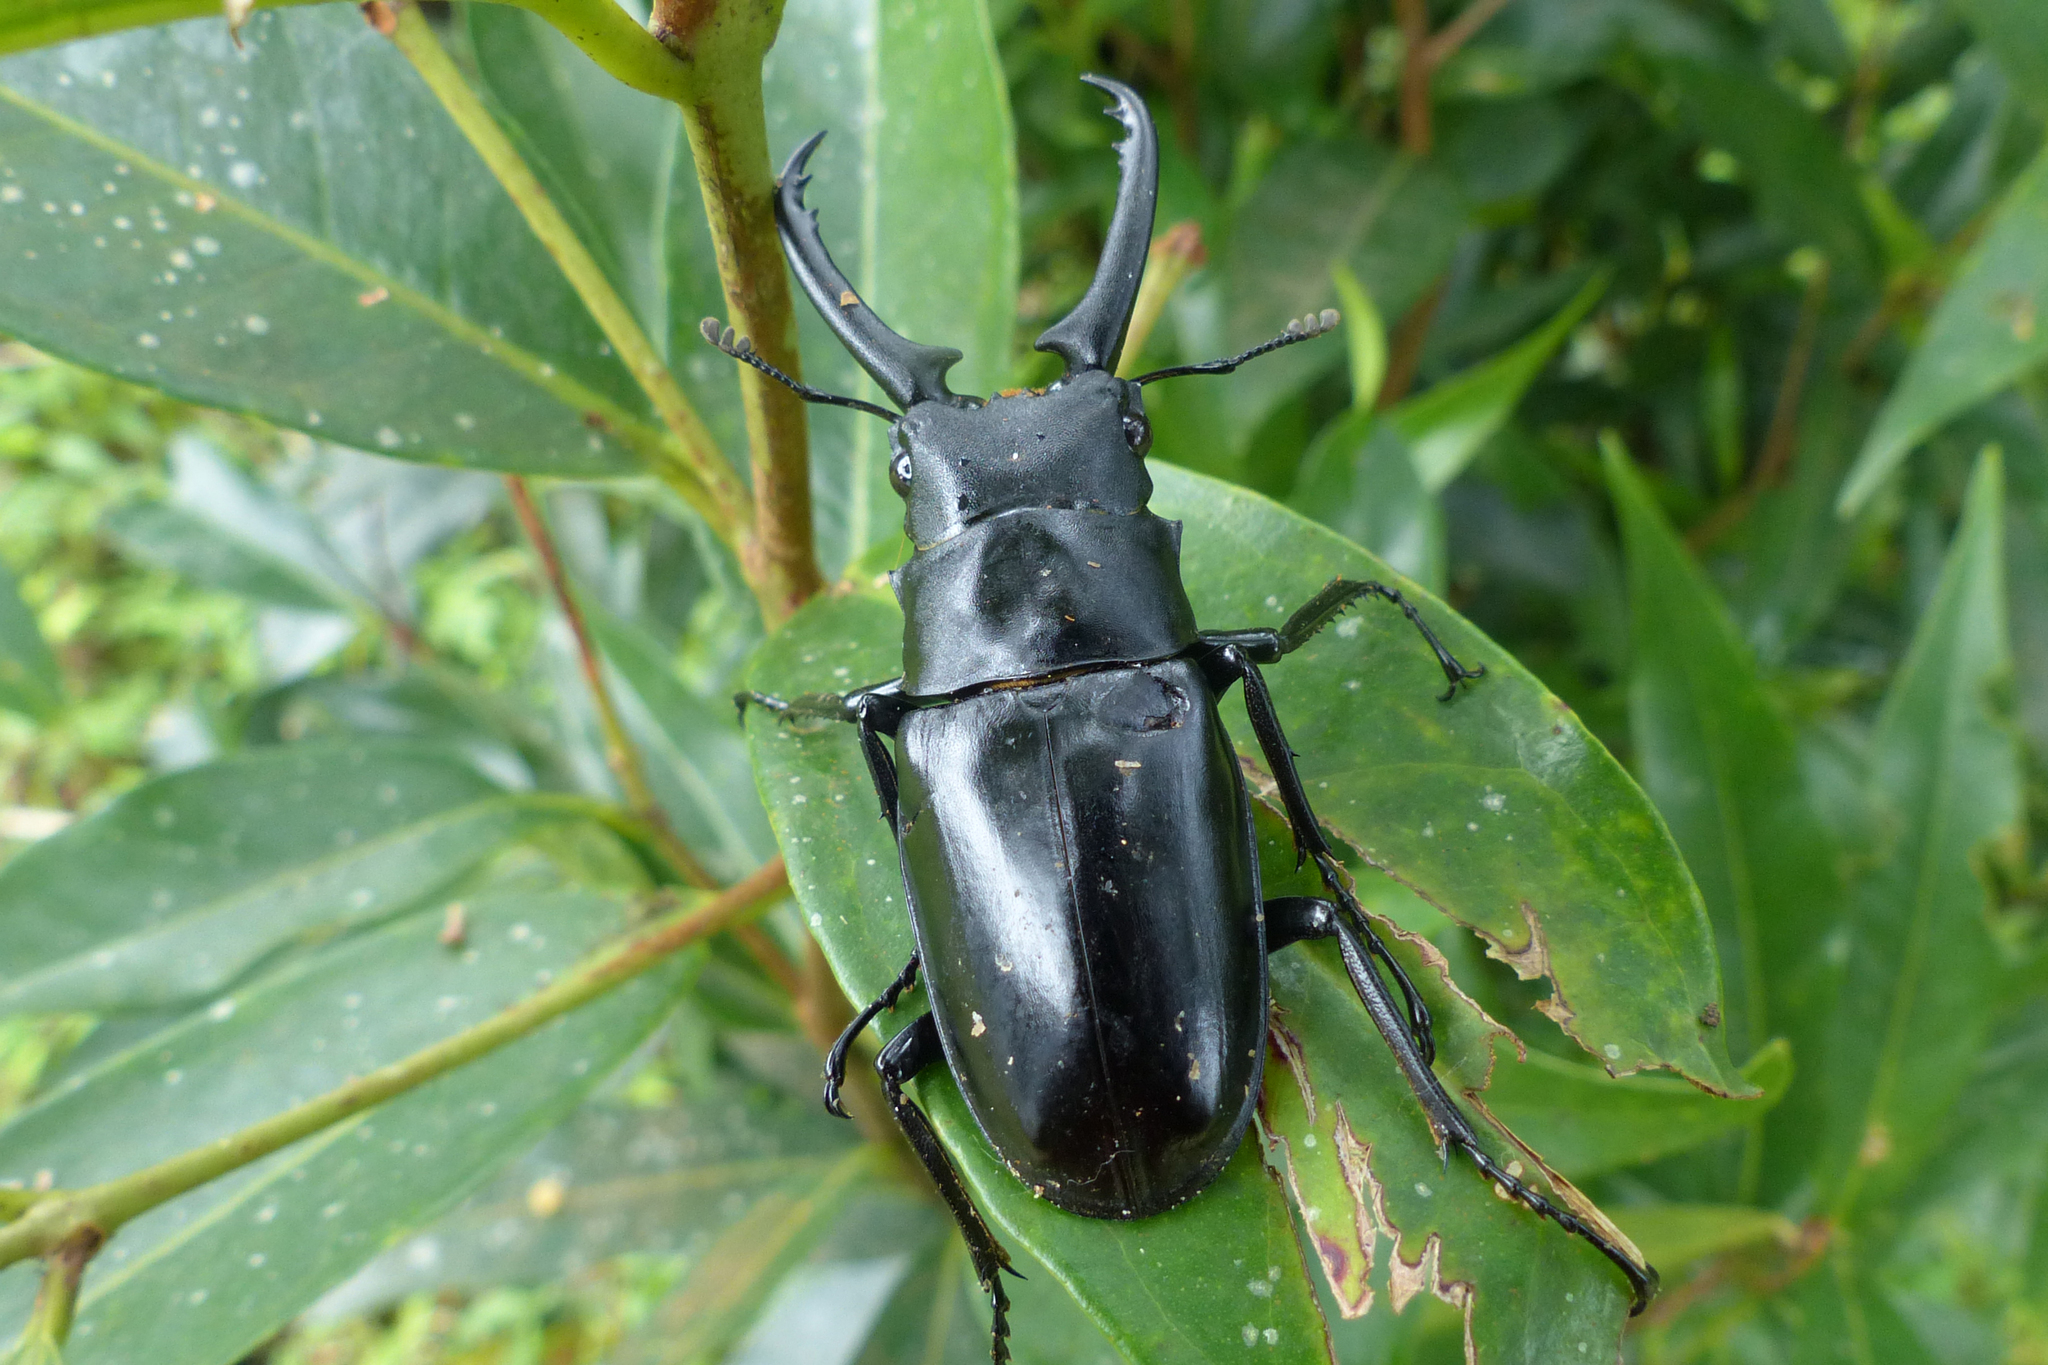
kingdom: Animalia
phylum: Arthropoda
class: Insecta
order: Coleoptera
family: Lucanidae
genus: Prosopocoilus
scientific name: Prosopocoilus girafa
